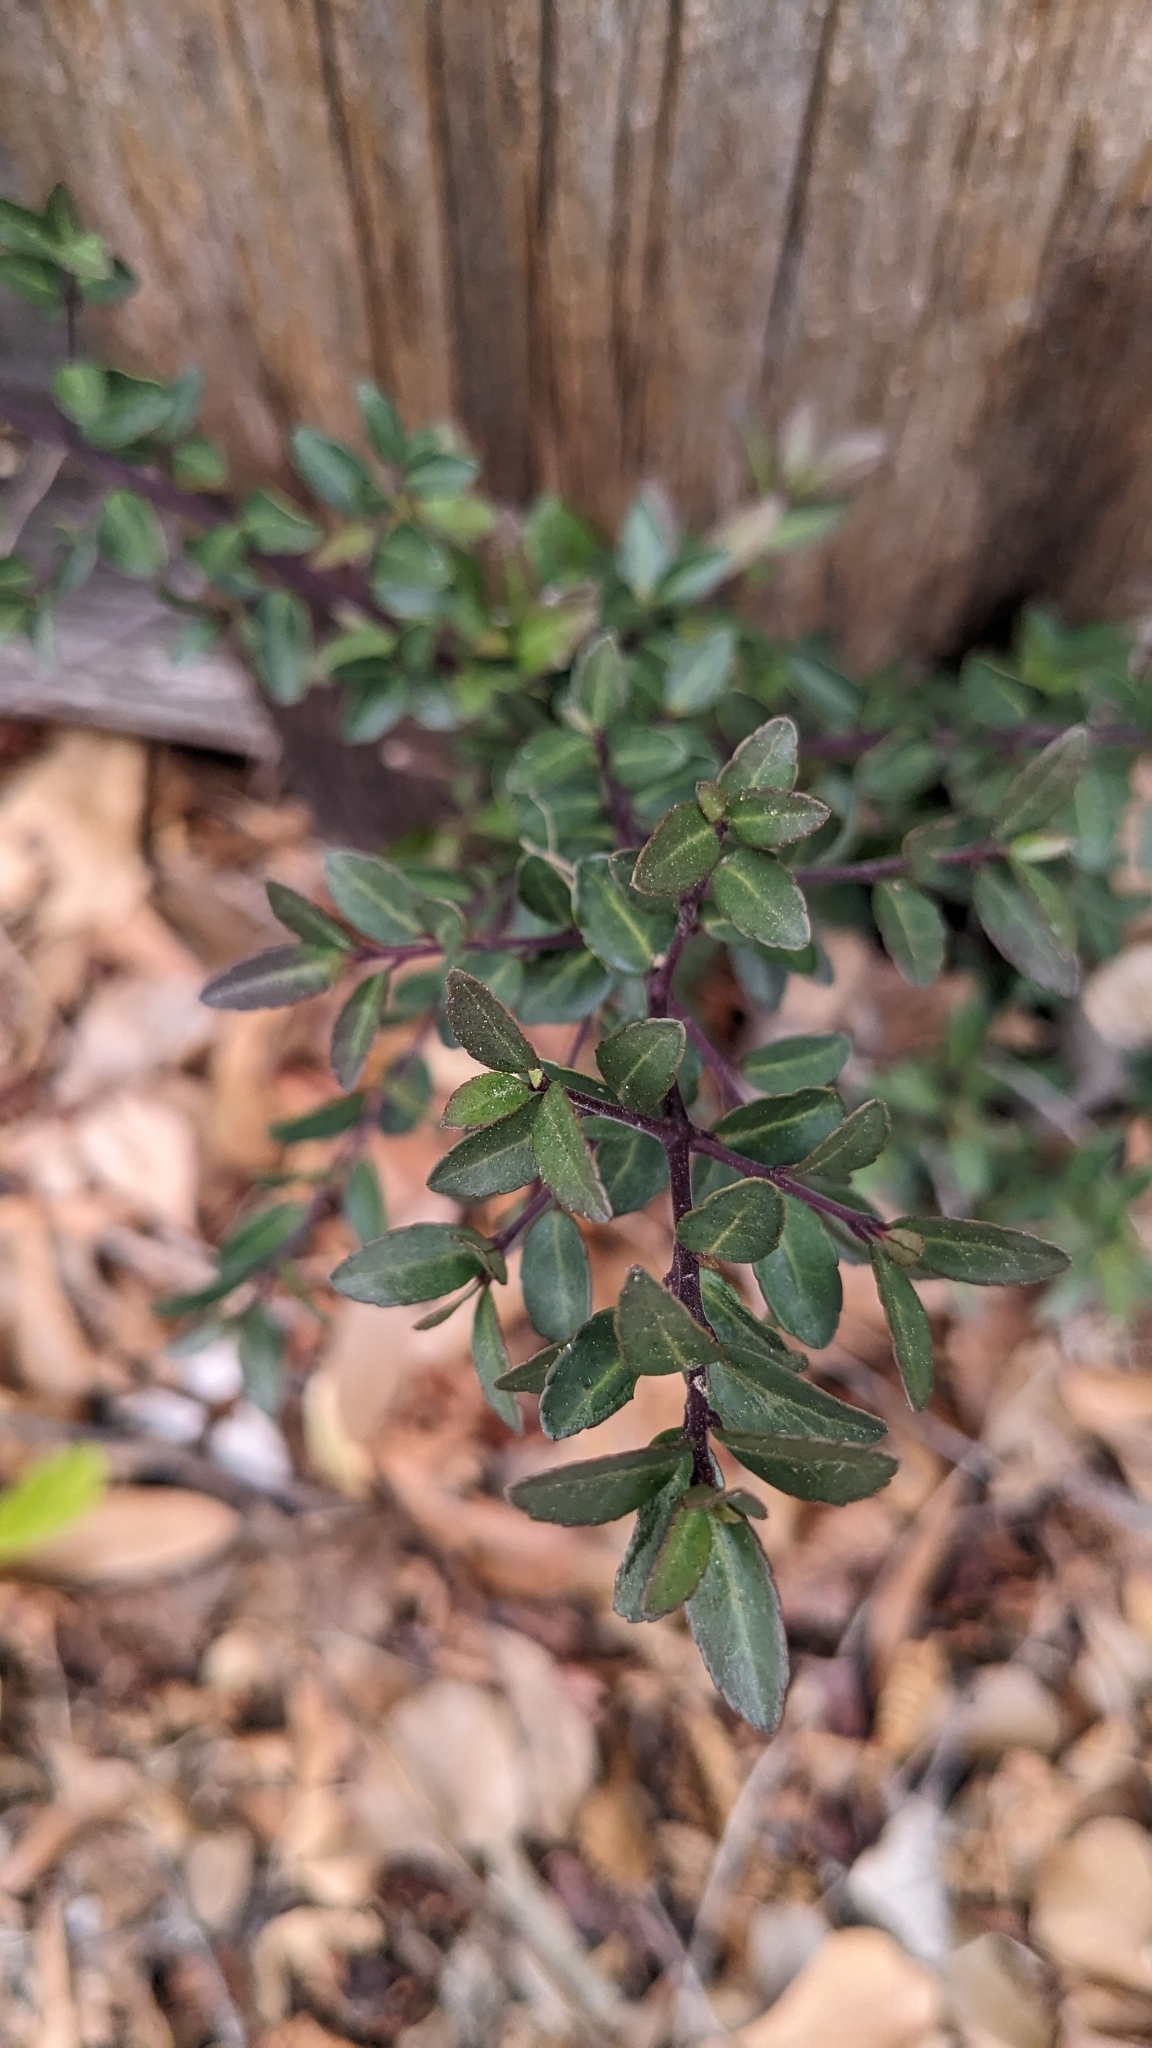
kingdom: Plantae
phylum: Tracheophyta
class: Magnoliopsida
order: Aquifoliales
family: Aquifoliaceae
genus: Ilex
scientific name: Ilex vomitoria
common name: Yaupon holly
